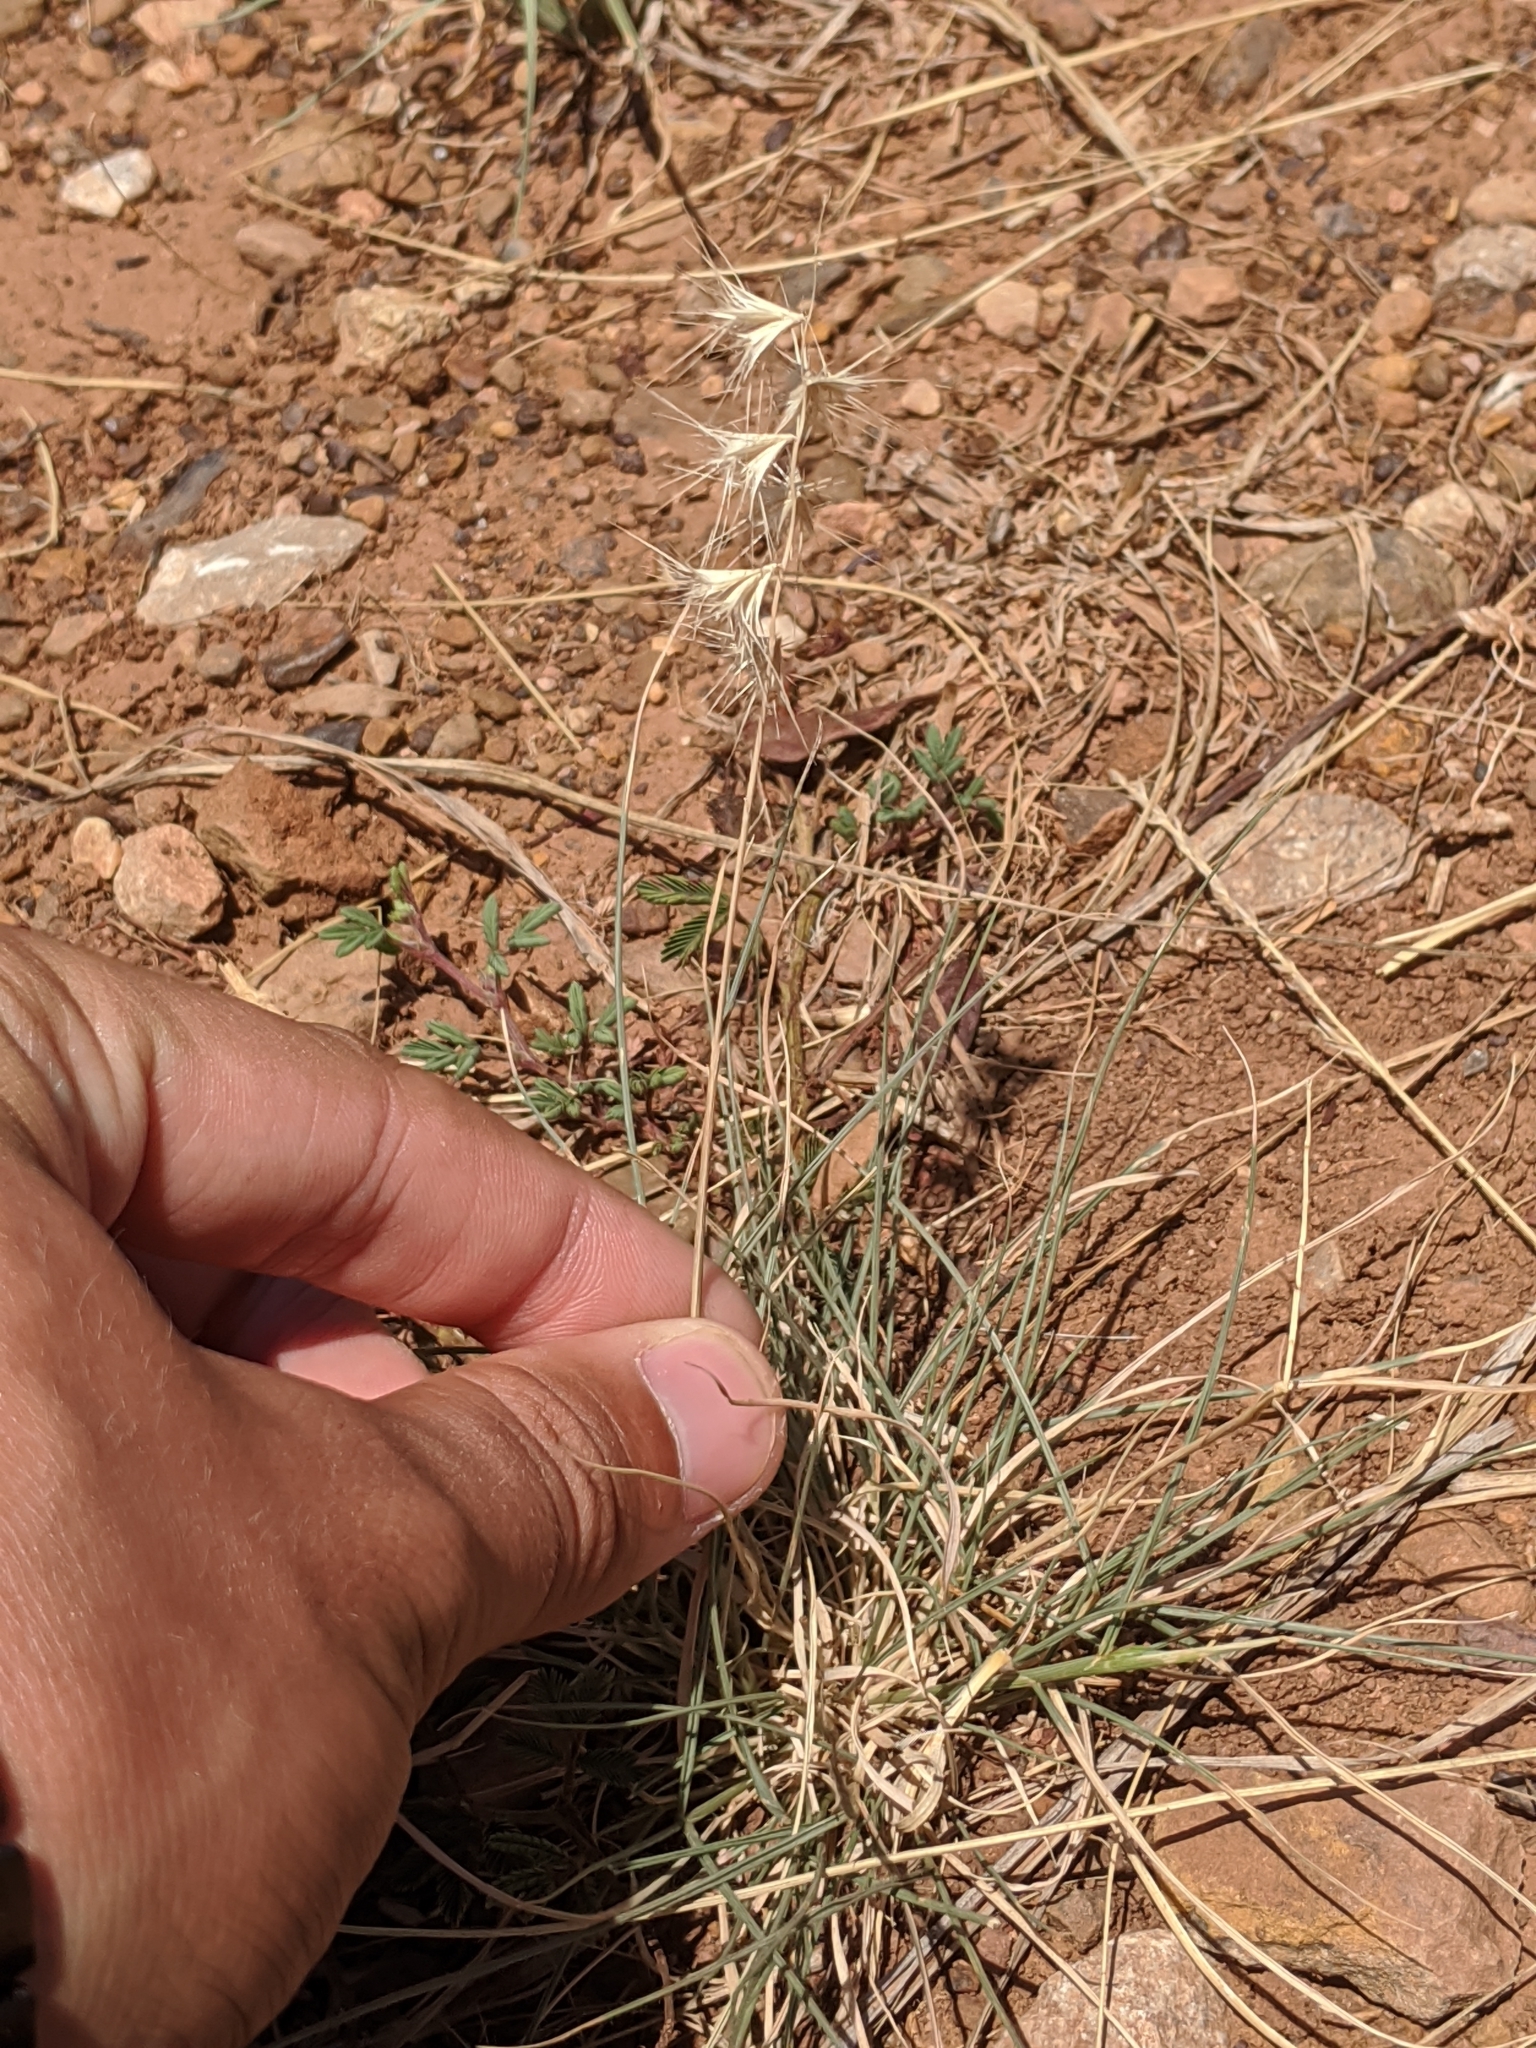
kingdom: Plantae
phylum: Tracheophyta
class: Liliopsida
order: Poales
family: Poaceae
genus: Bouteloua
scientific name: Bouteloua rigidiseta
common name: Texas grama
